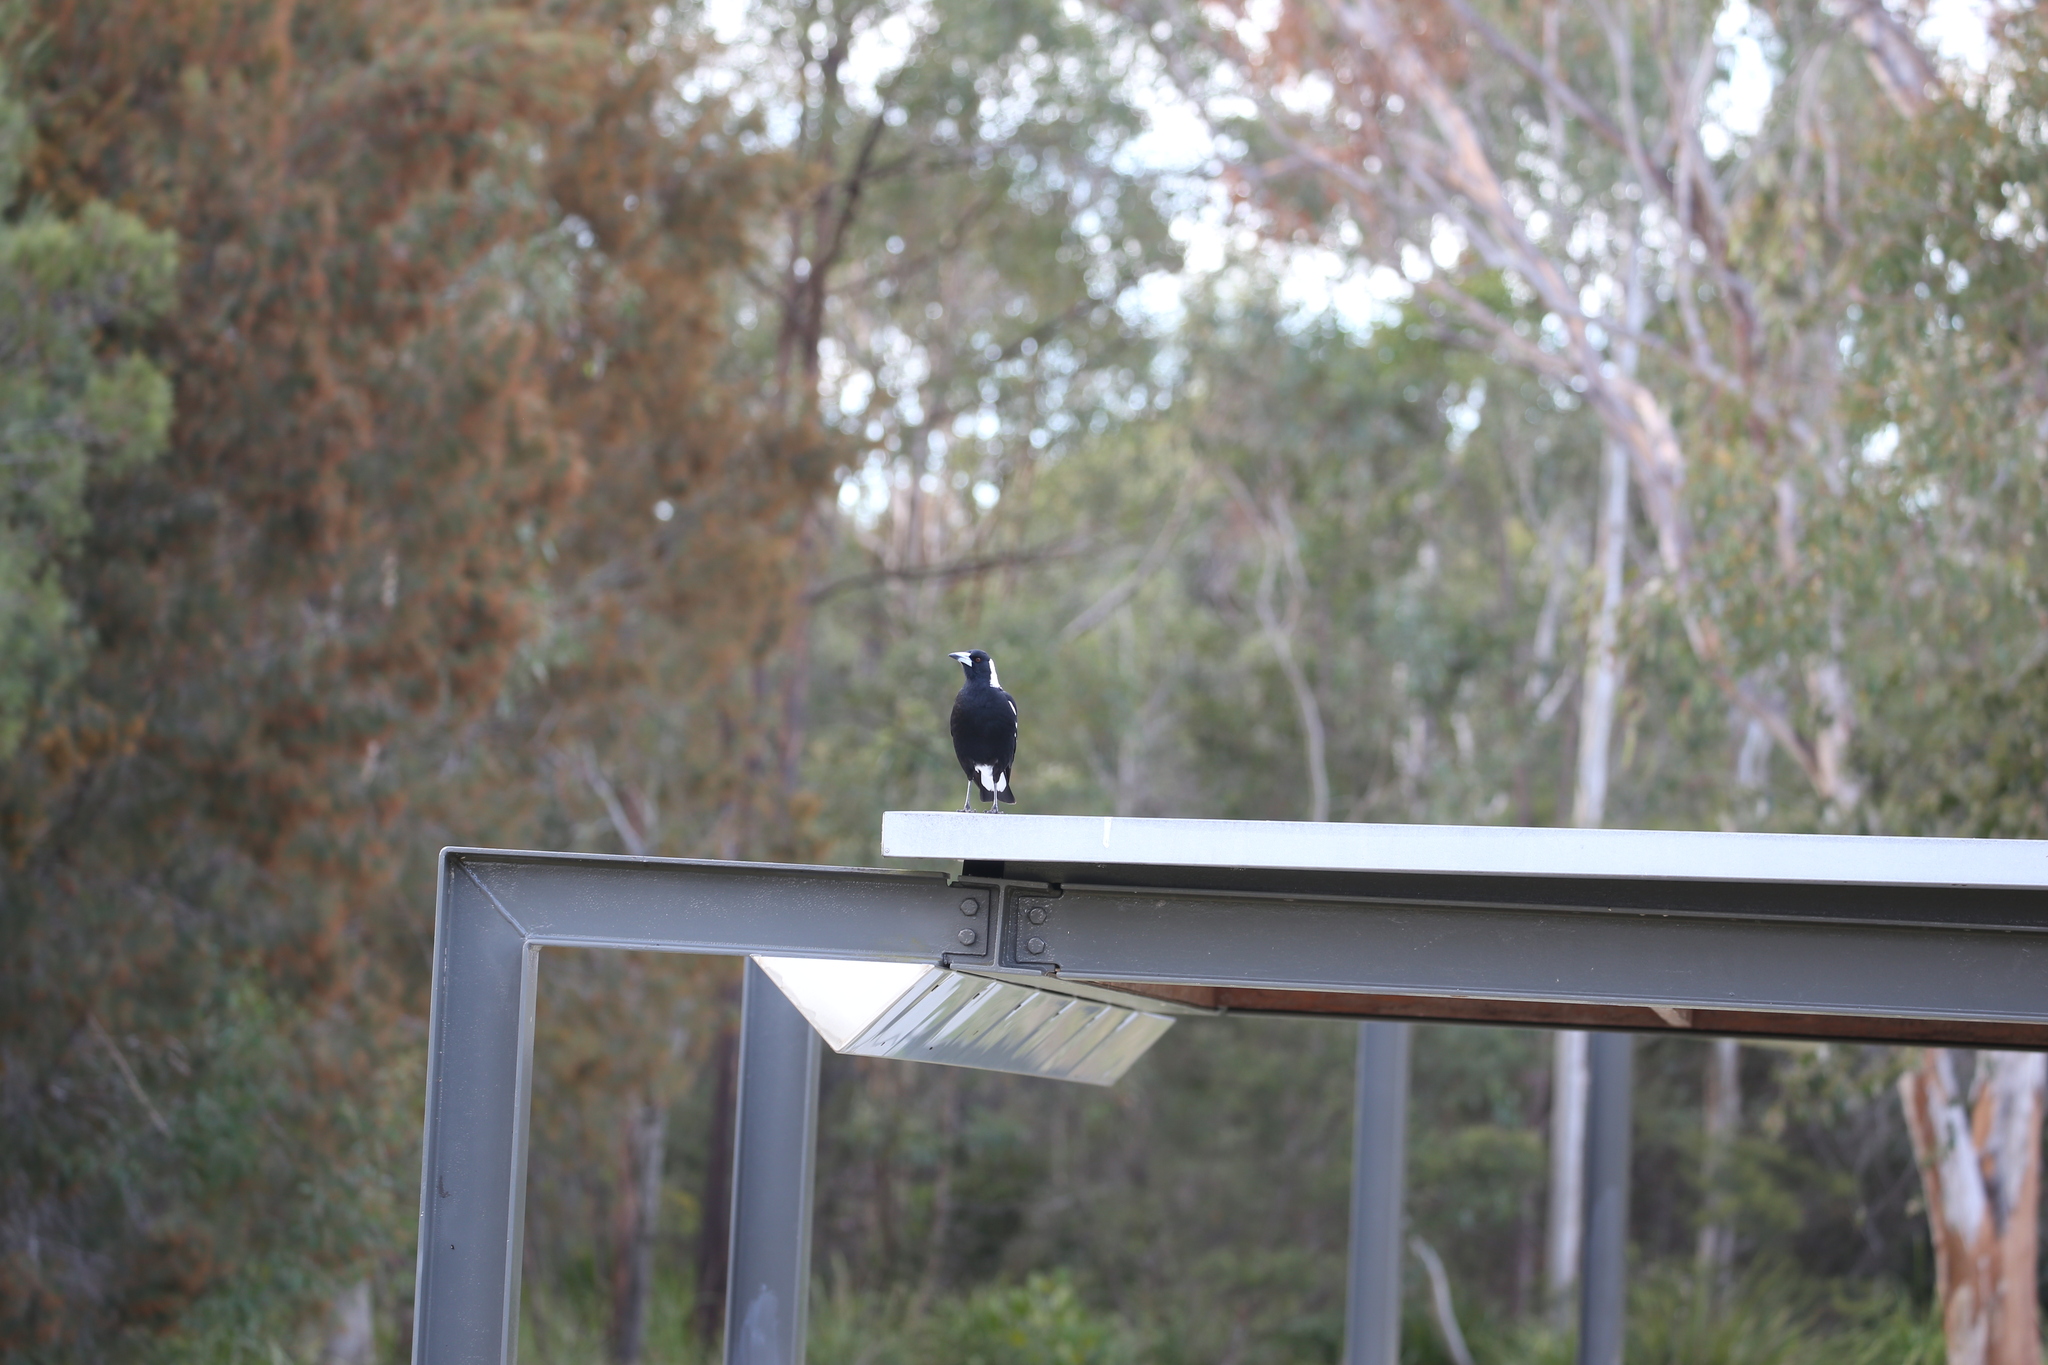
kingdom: Animalia
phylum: Chordata
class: Aves
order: Passeriformes
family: Cracticidae
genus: Gymnorhina
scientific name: Gymnorhina tibicen
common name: Australian magpie
